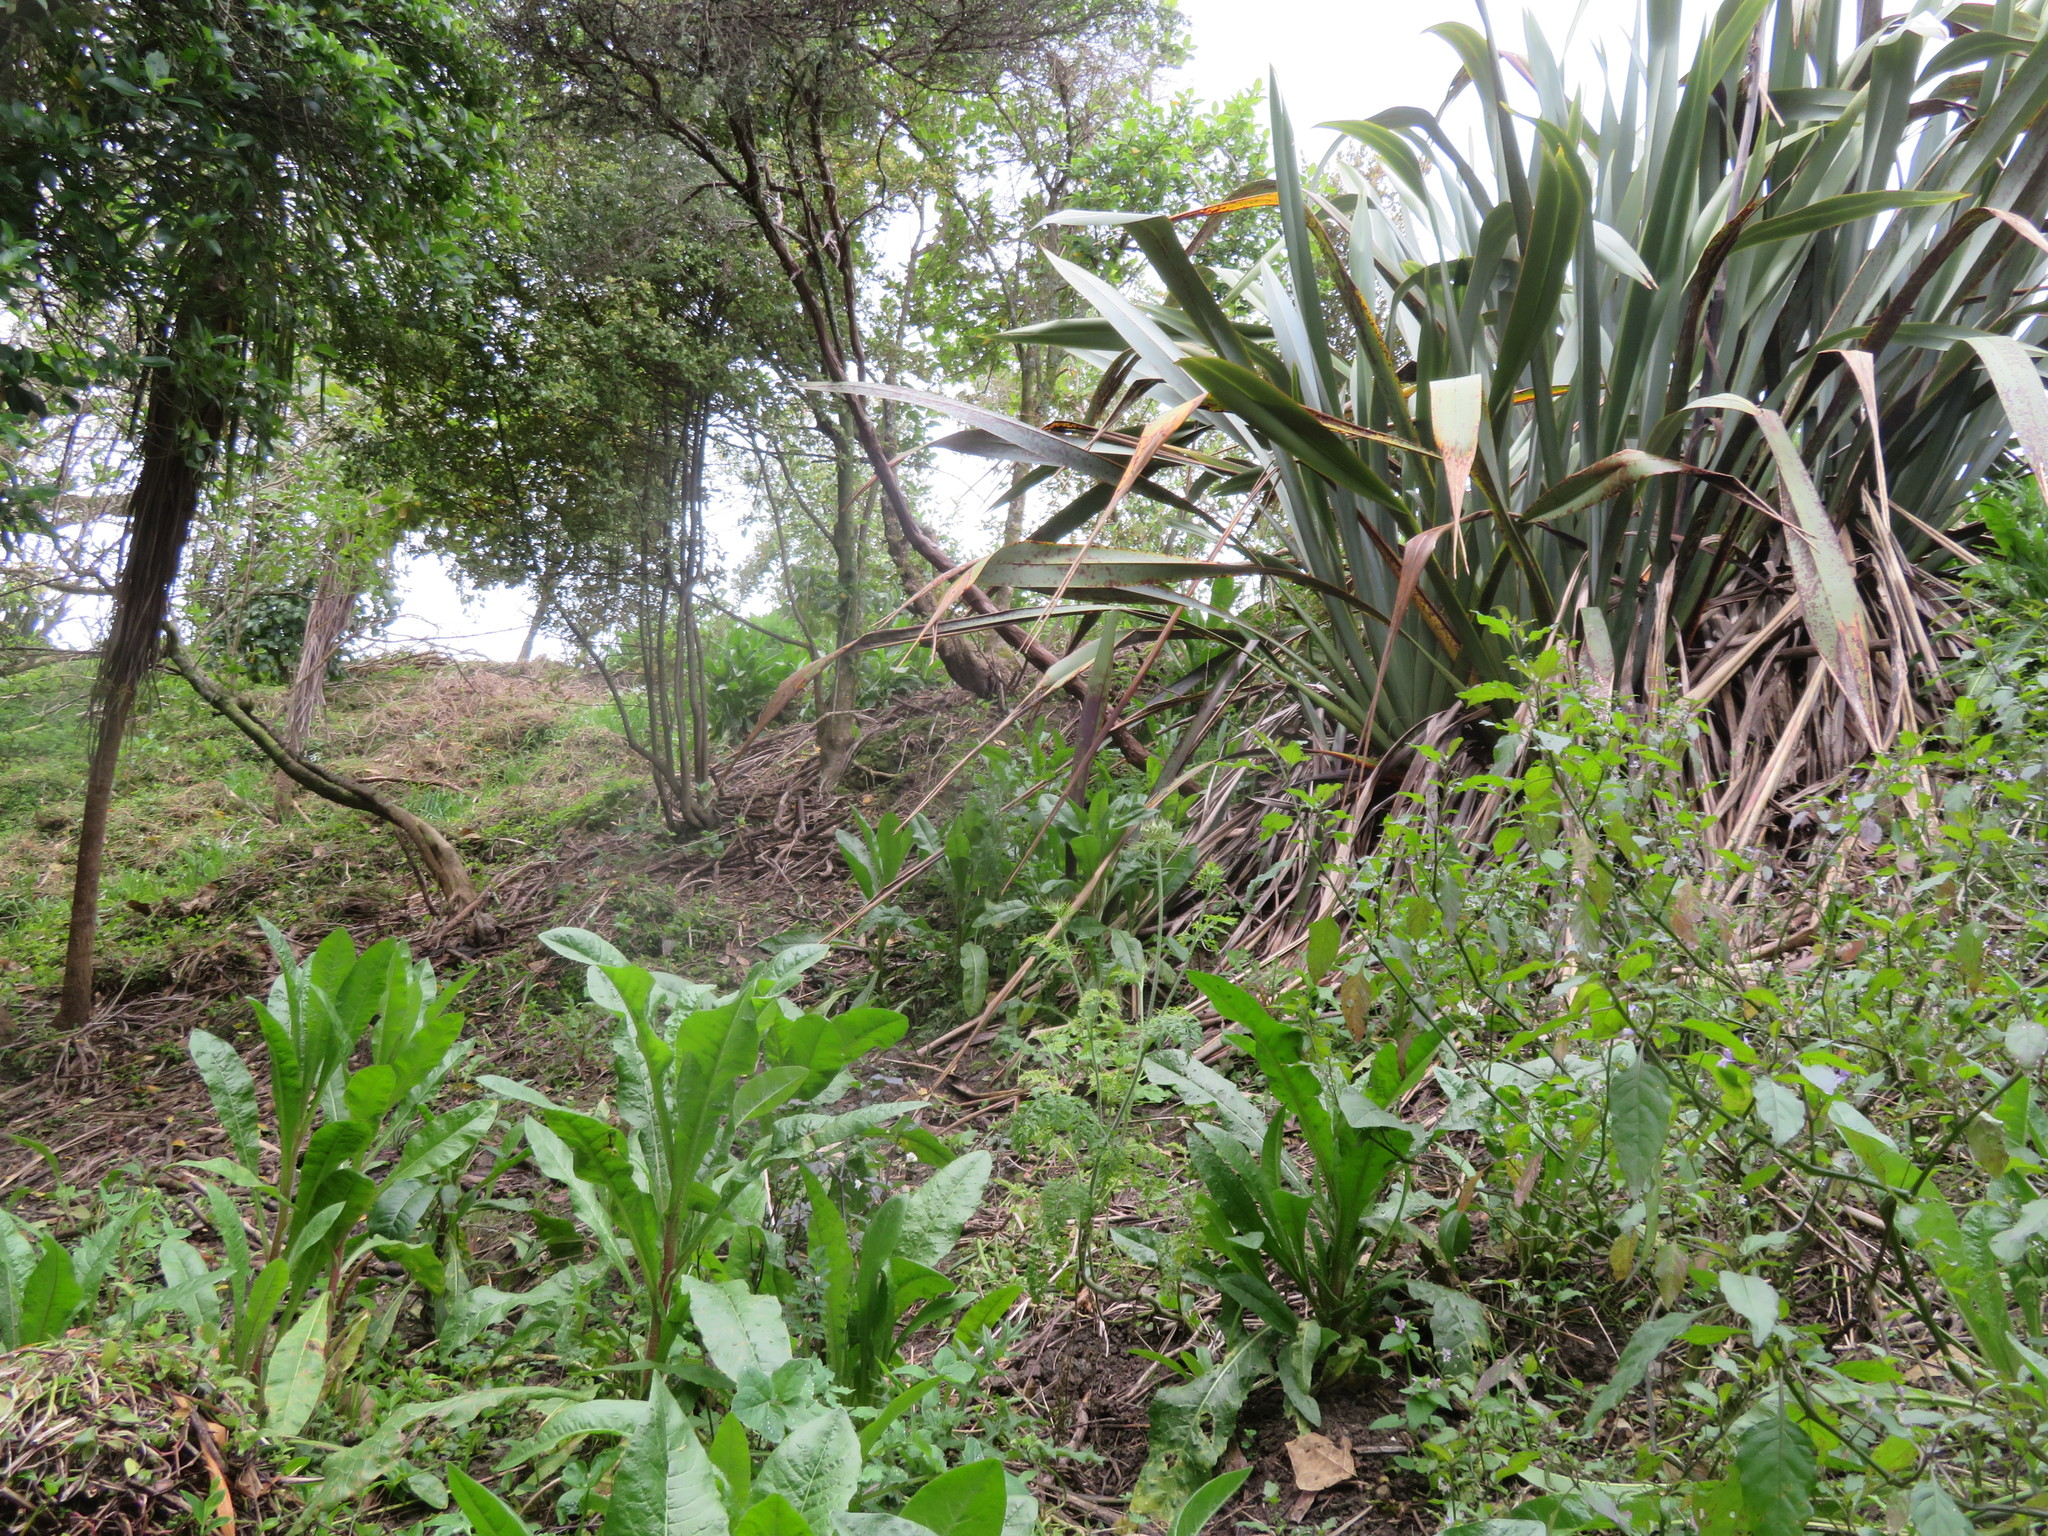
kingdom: Plantae
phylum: Tracheophyta
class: Magnoliopsida
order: Asterales
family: Asteraceae
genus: Helminthotheca
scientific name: Helminthotheca echioides
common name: Ox-tongue
